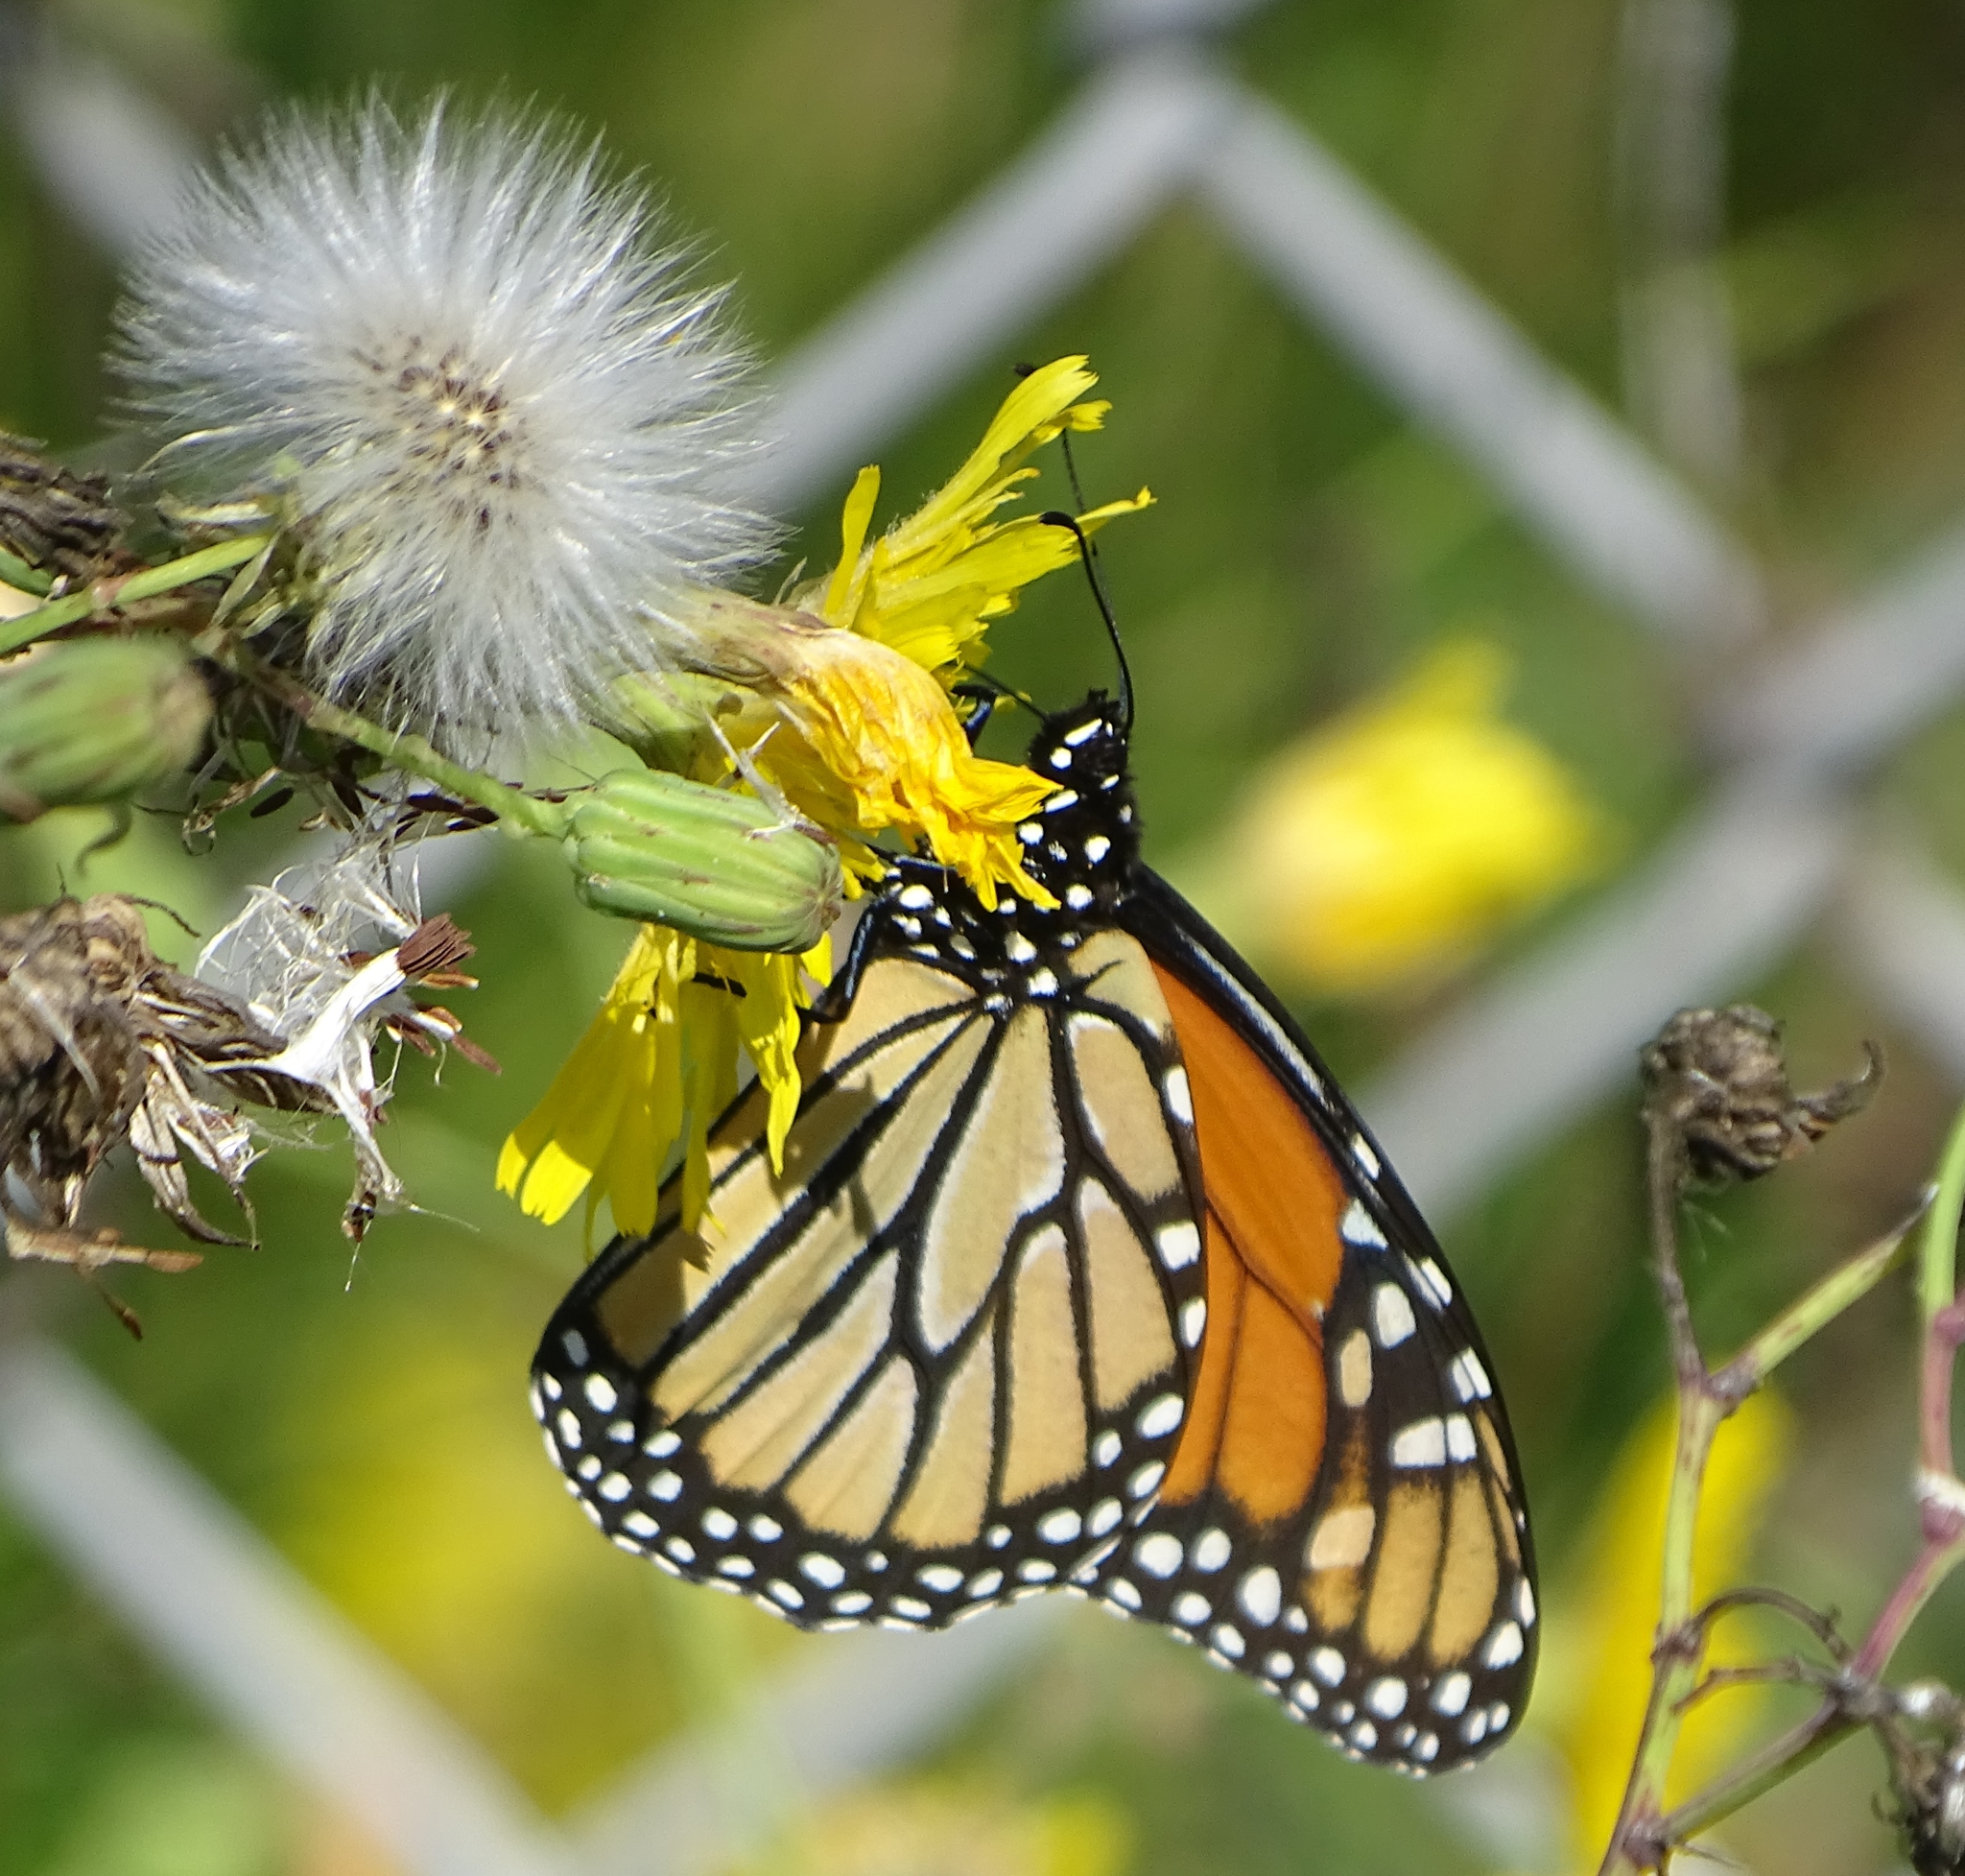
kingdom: Animalia
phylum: Arthropoda
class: Insecta
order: Lepidoptera
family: Nymphalidae
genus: Danaus
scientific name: Danaus plexippus
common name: Monarch
